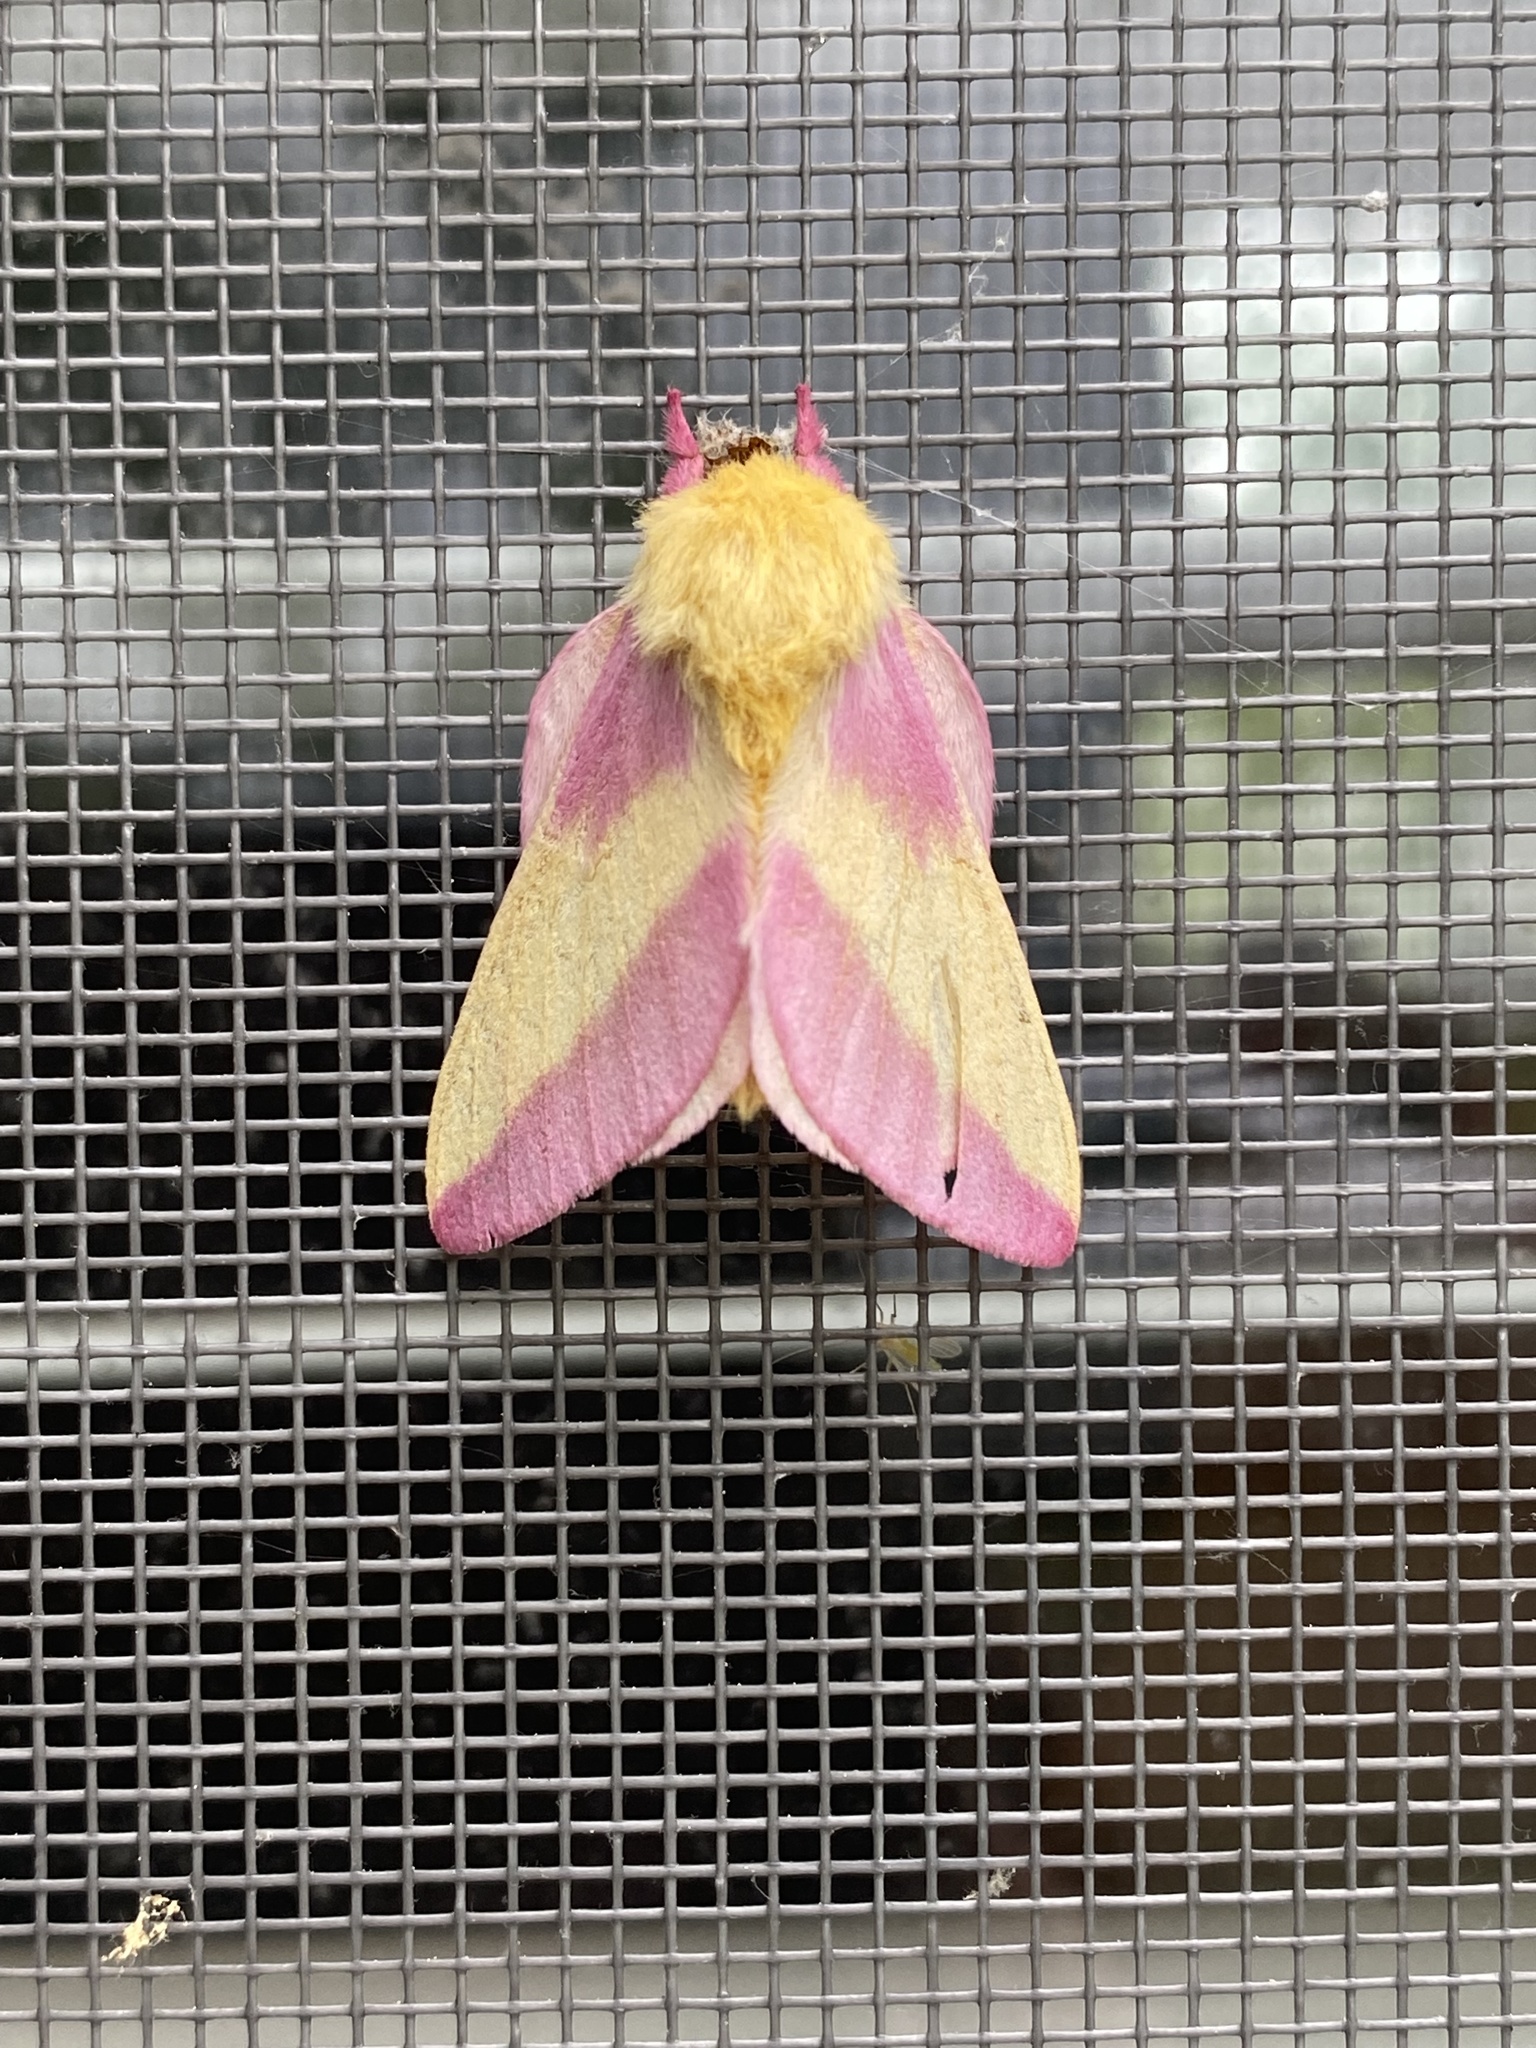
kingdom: Animalia
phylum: Arthropoda
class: Insecta
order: Lepidoptera
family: Saturniidae
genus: Dryocampa
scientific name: Dryocampa rubicunda
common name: Rosy maple moth
